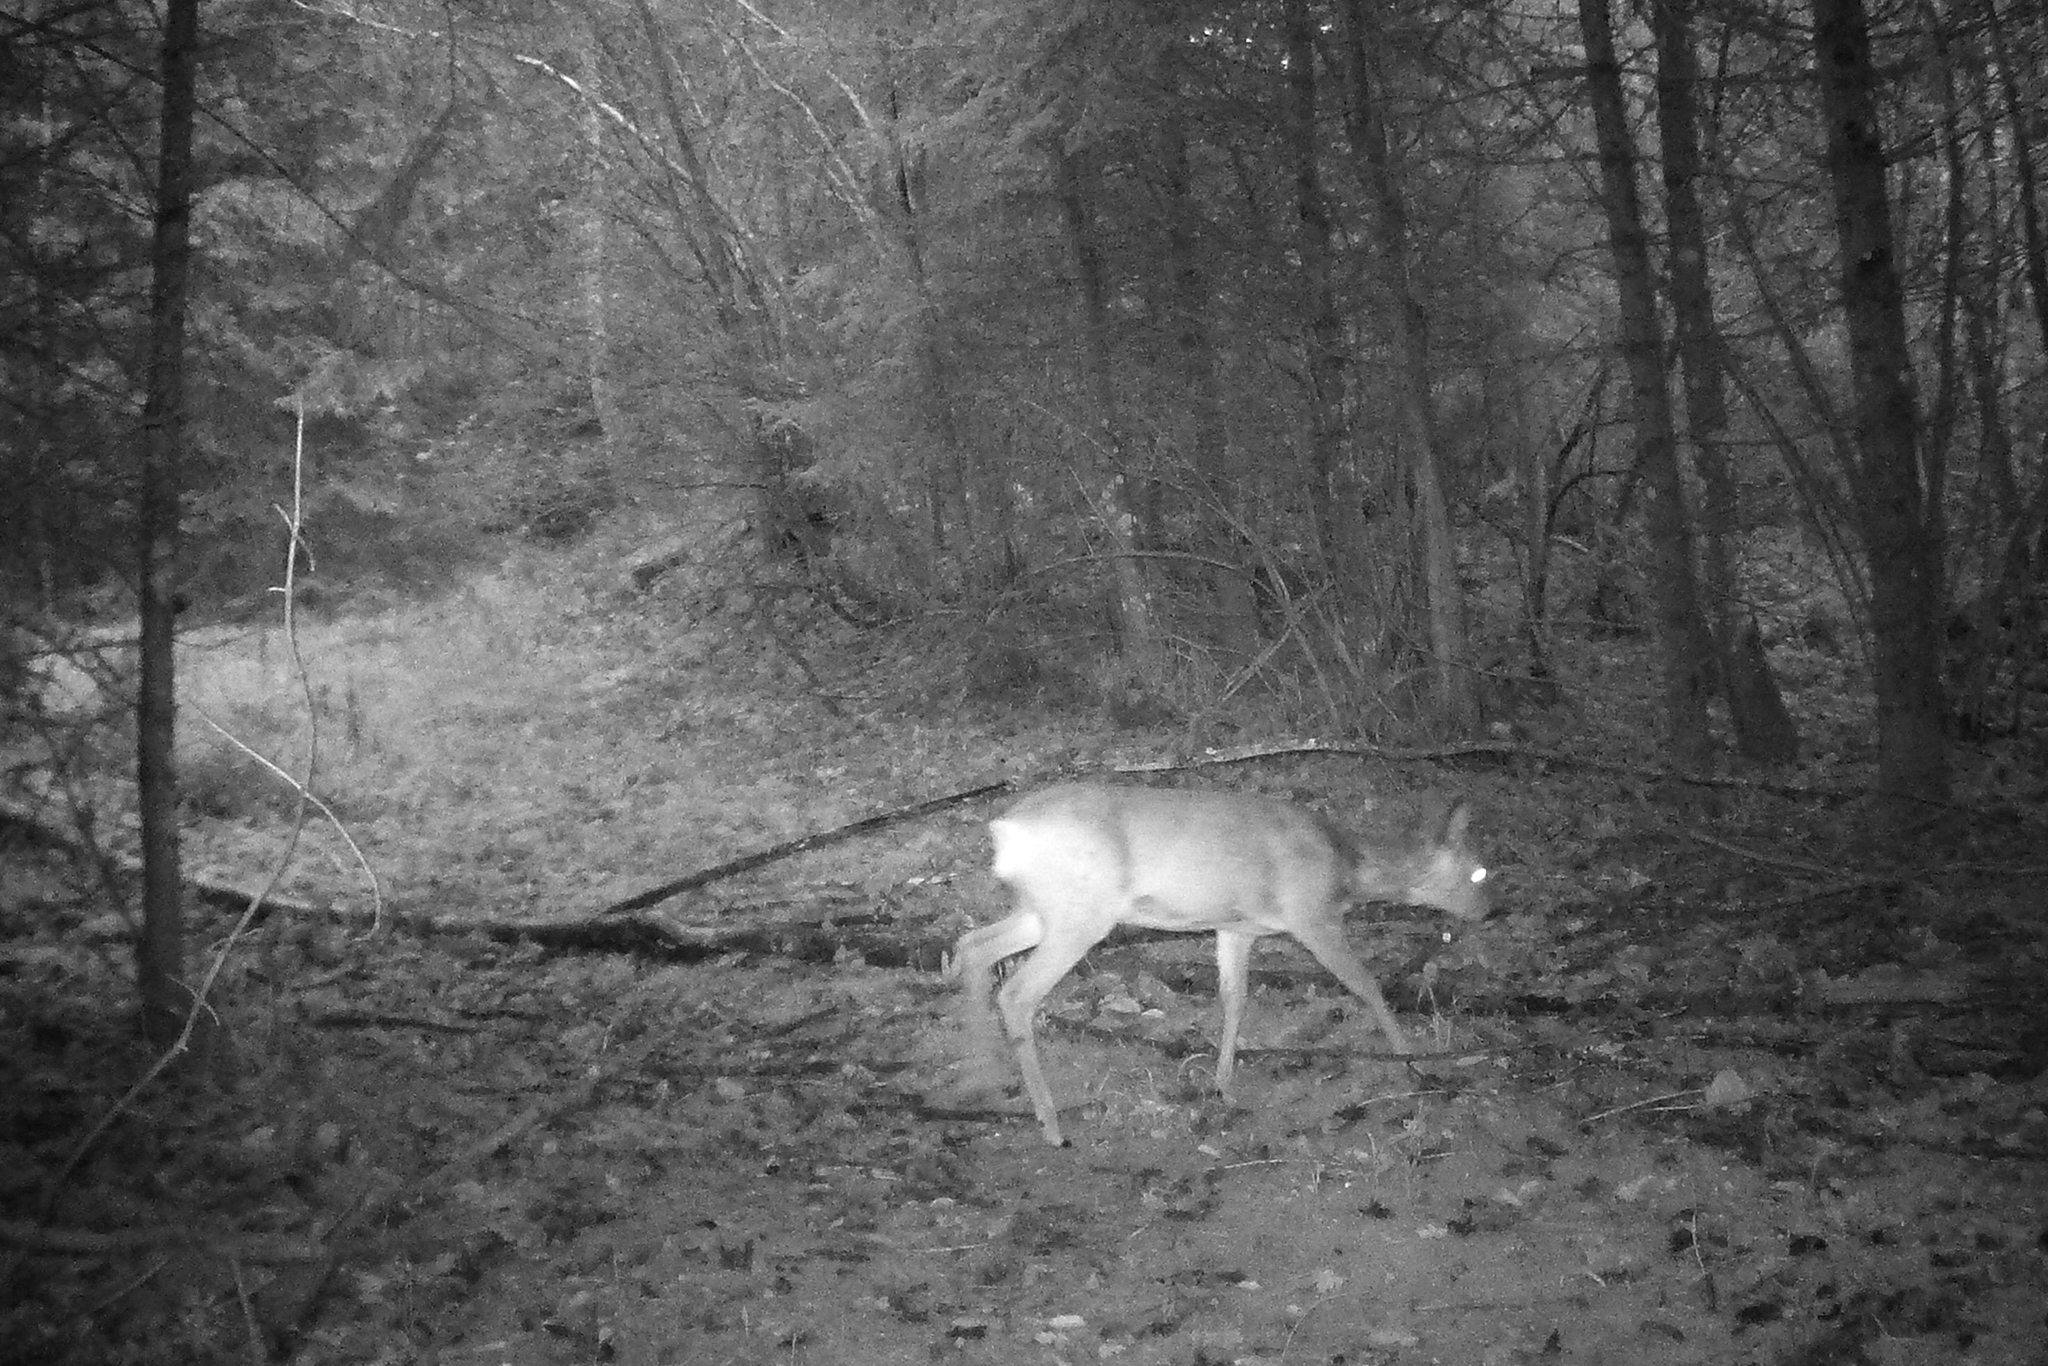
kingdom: Animalia
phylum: Chordata
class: Mammalia
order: Artiodactyla
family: Cervidae
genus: Capreolus
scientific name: Capreolus capreolus
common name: Western roe deer
